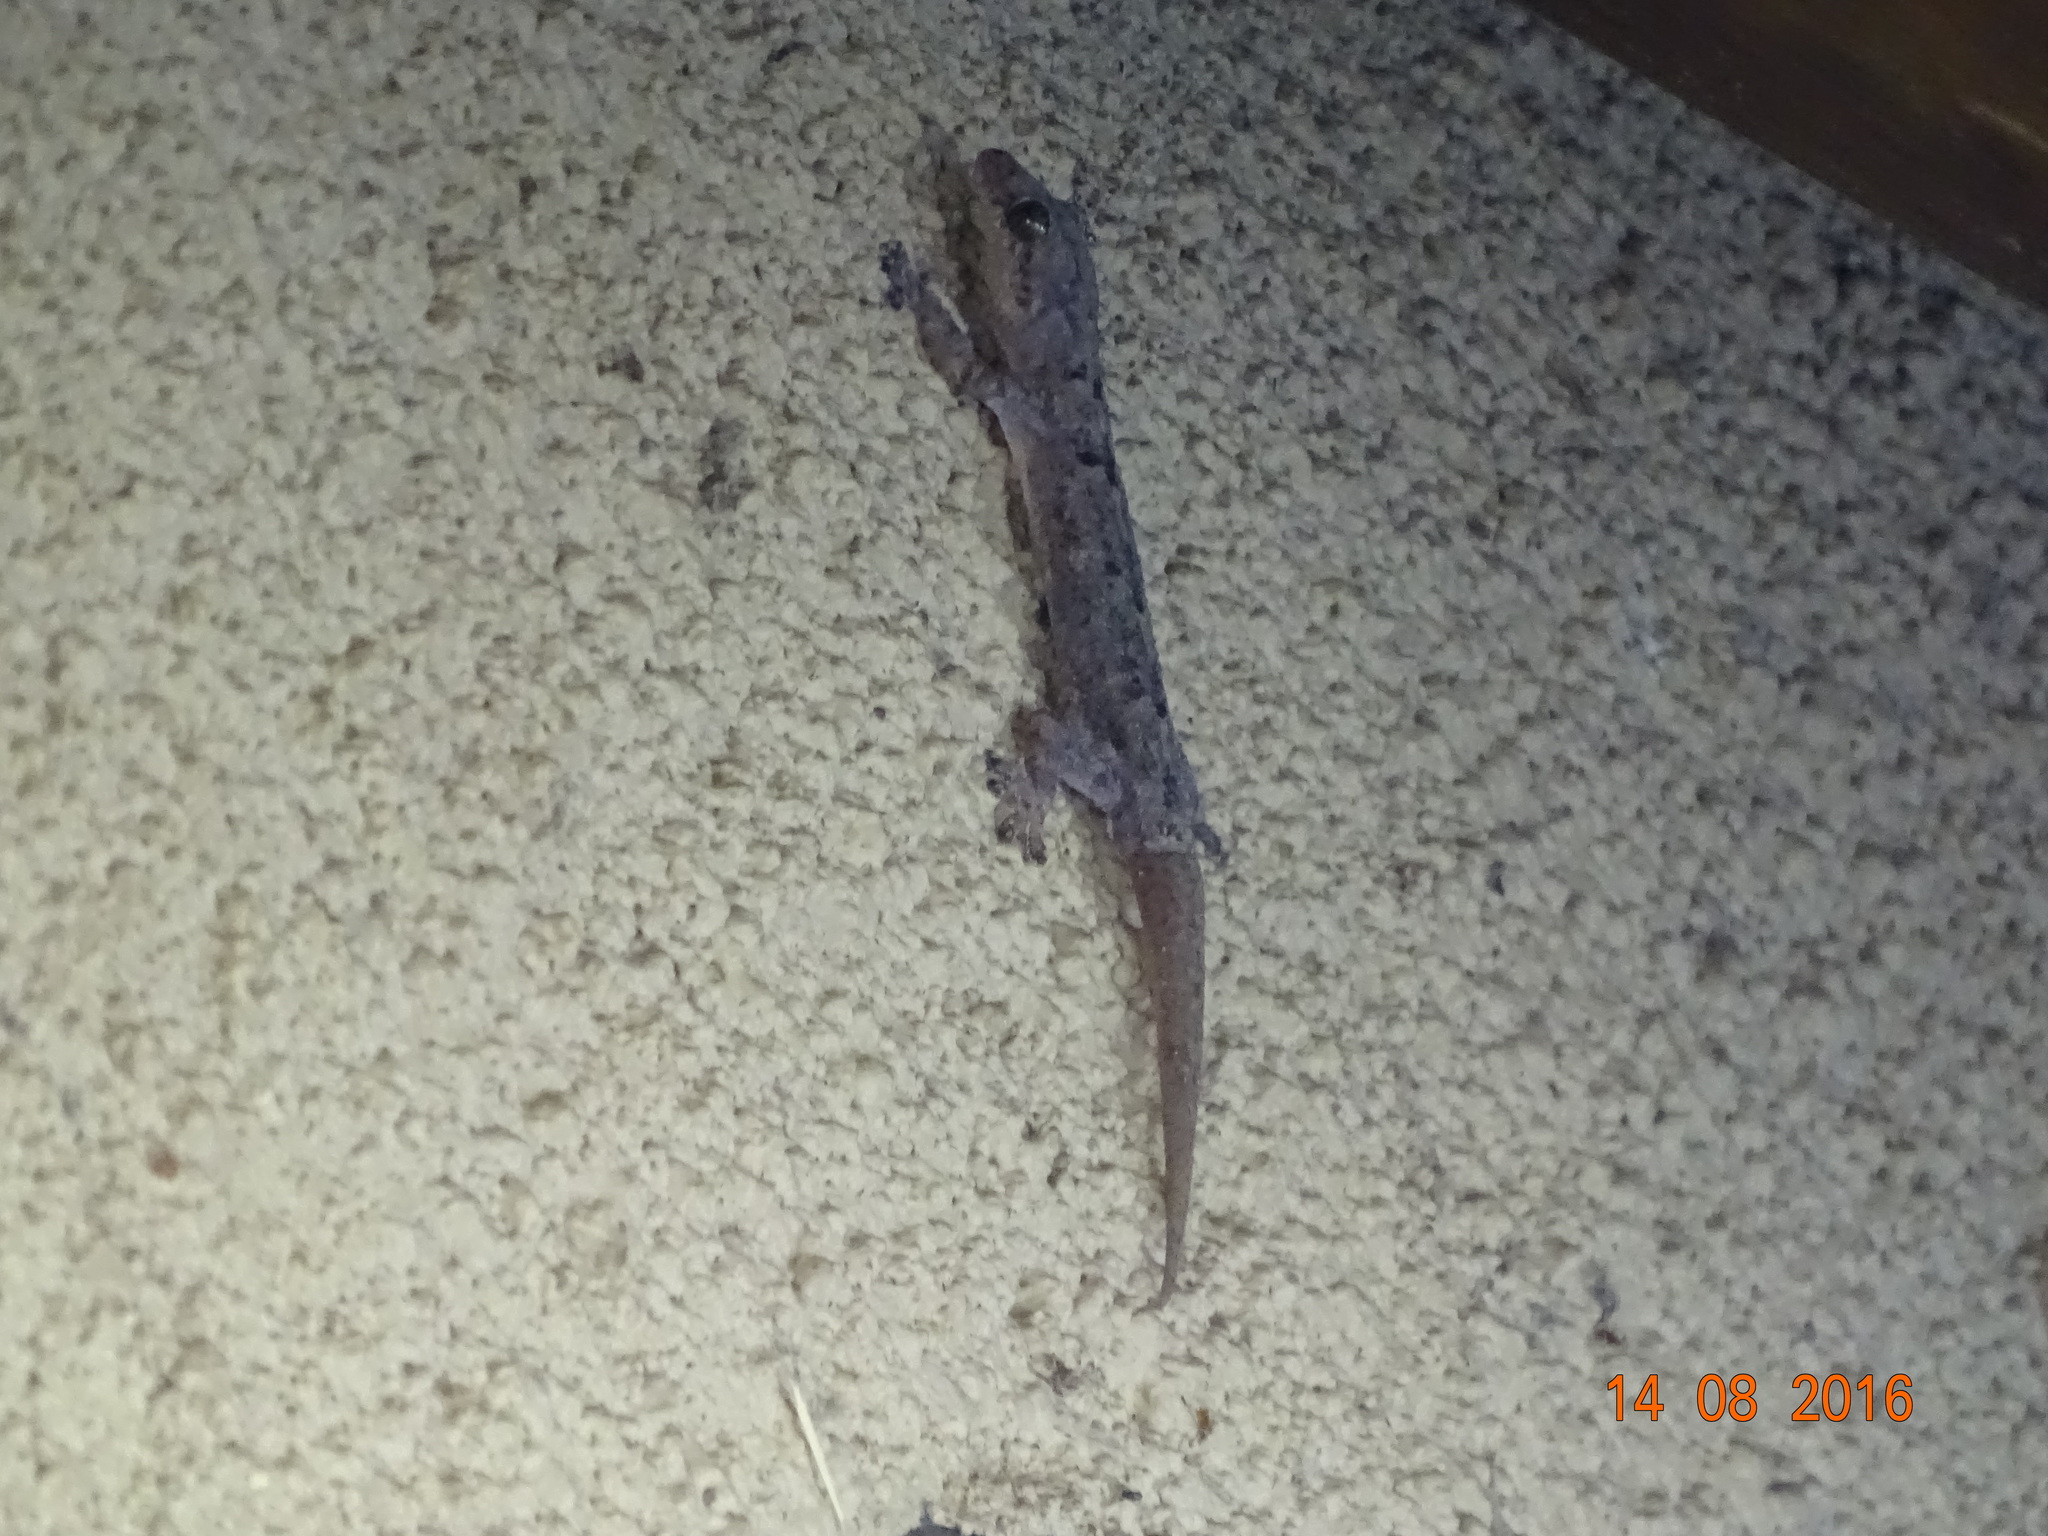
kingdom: Animalia
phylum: Chordata
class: Squamata
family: Gekkonidae
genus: Hemidactylus
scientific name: Hemidactylus mabouia
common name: House gecko
